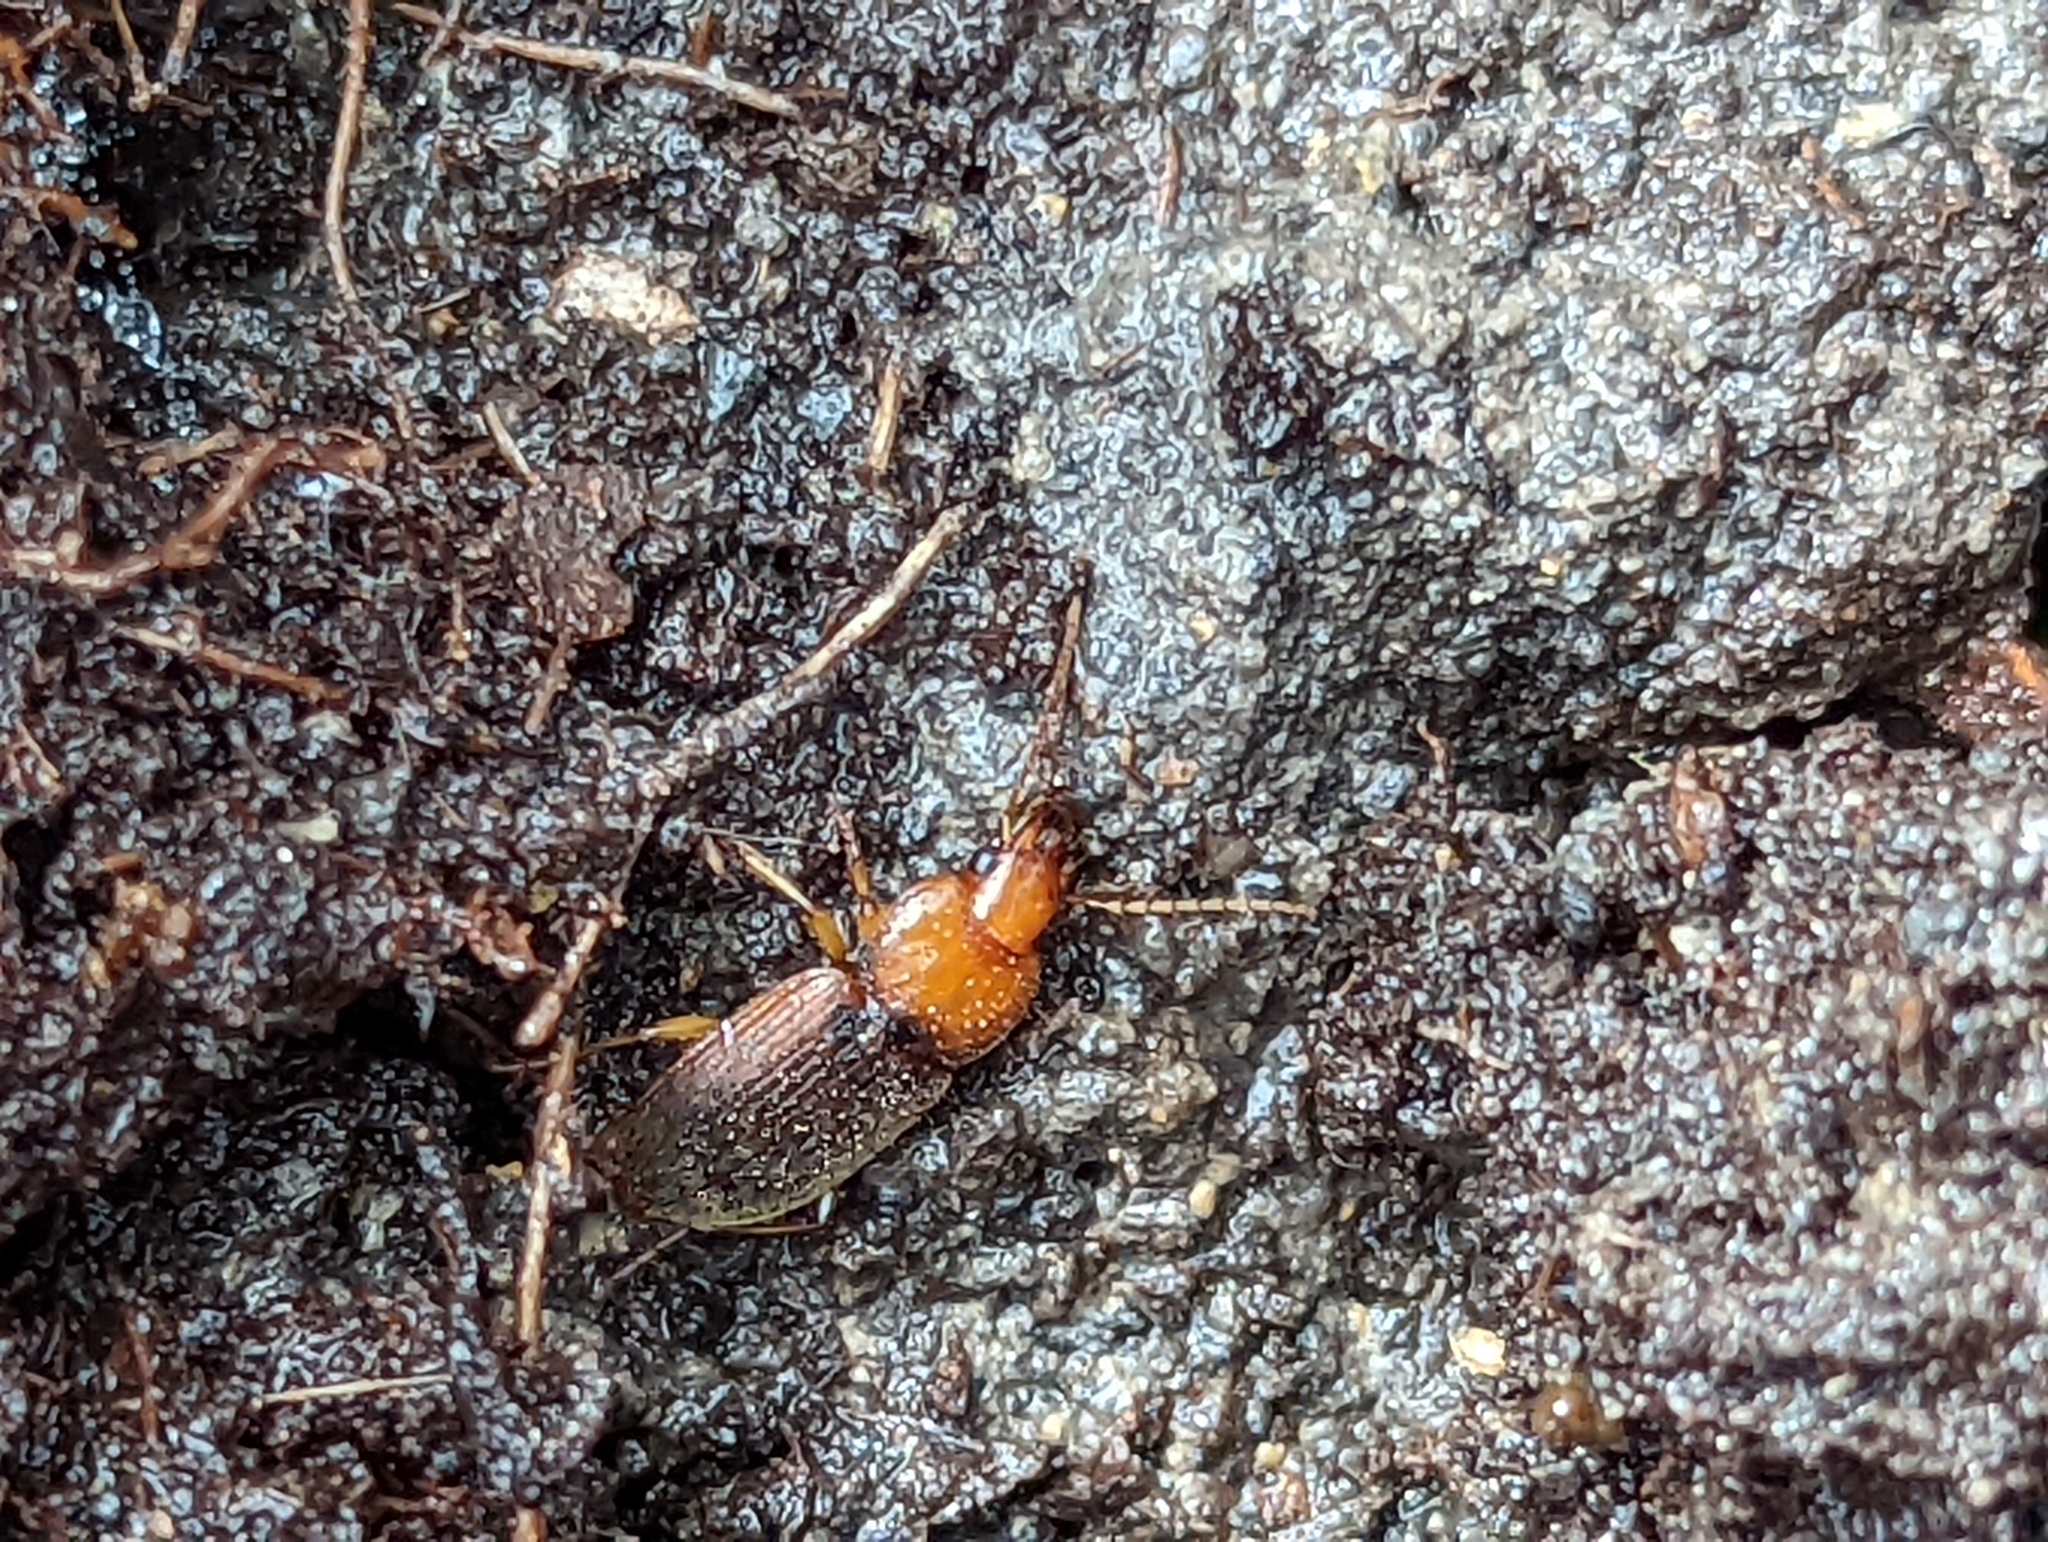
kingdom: Animalia
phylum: Arthropoda
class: Insecta
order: Coleoptera
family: Carabidae
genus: Amphasia
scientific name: Amphasia interstitialis
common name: Red-headed ground beetle
